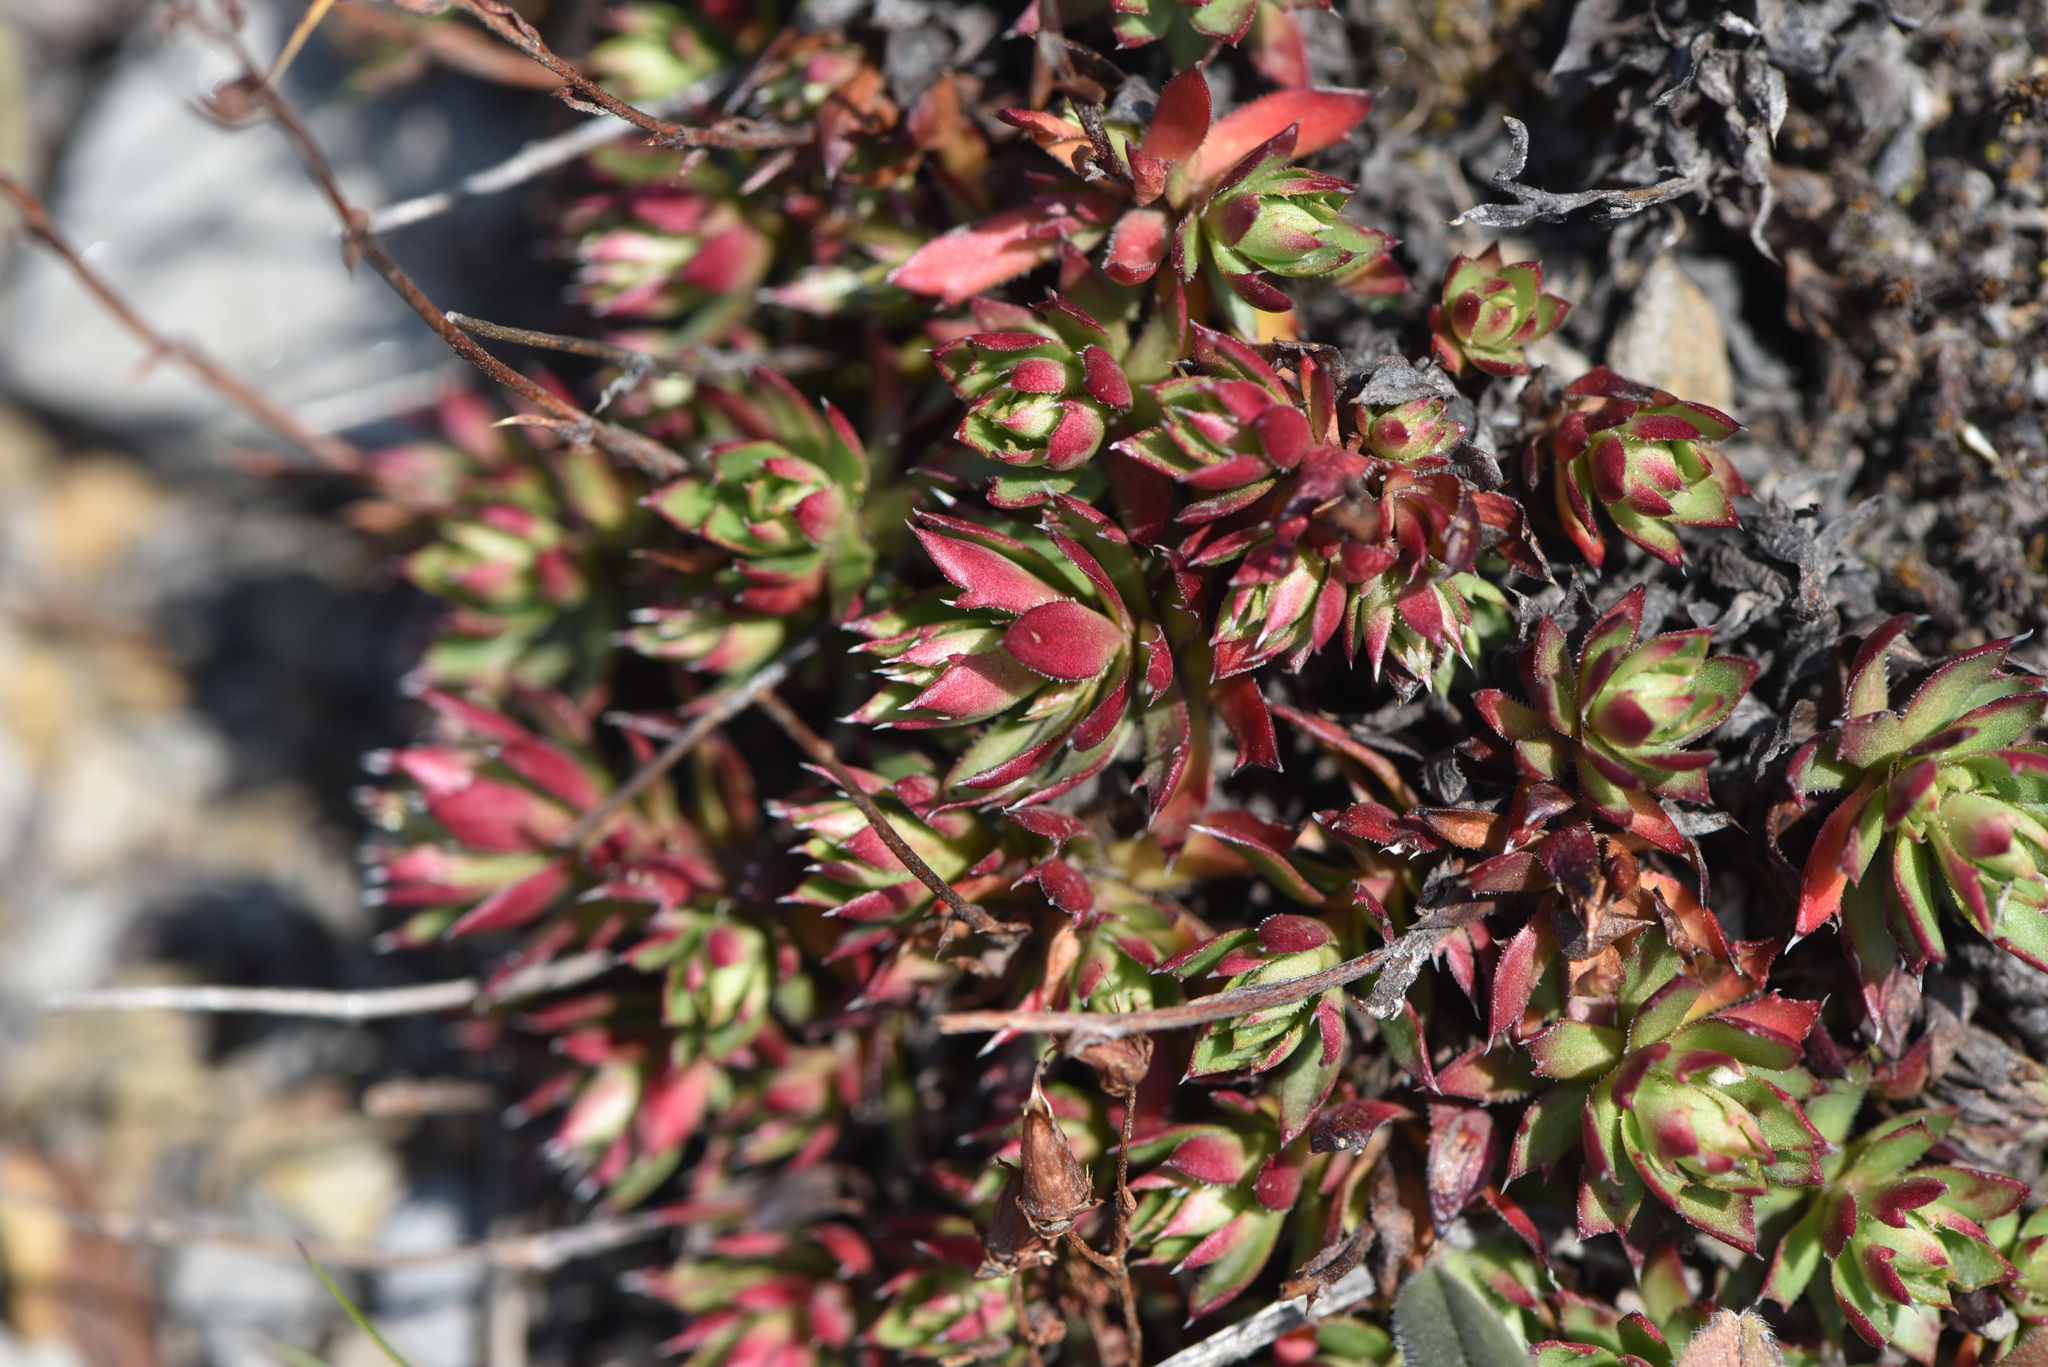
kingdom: Plantae
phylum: Tracheophyta
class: Magnoliopsida
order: Saxifragales
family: Saxifragaceae
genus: Saxifraga
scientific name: Saxifraga tricuspidata
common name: Prickly saxifrage
